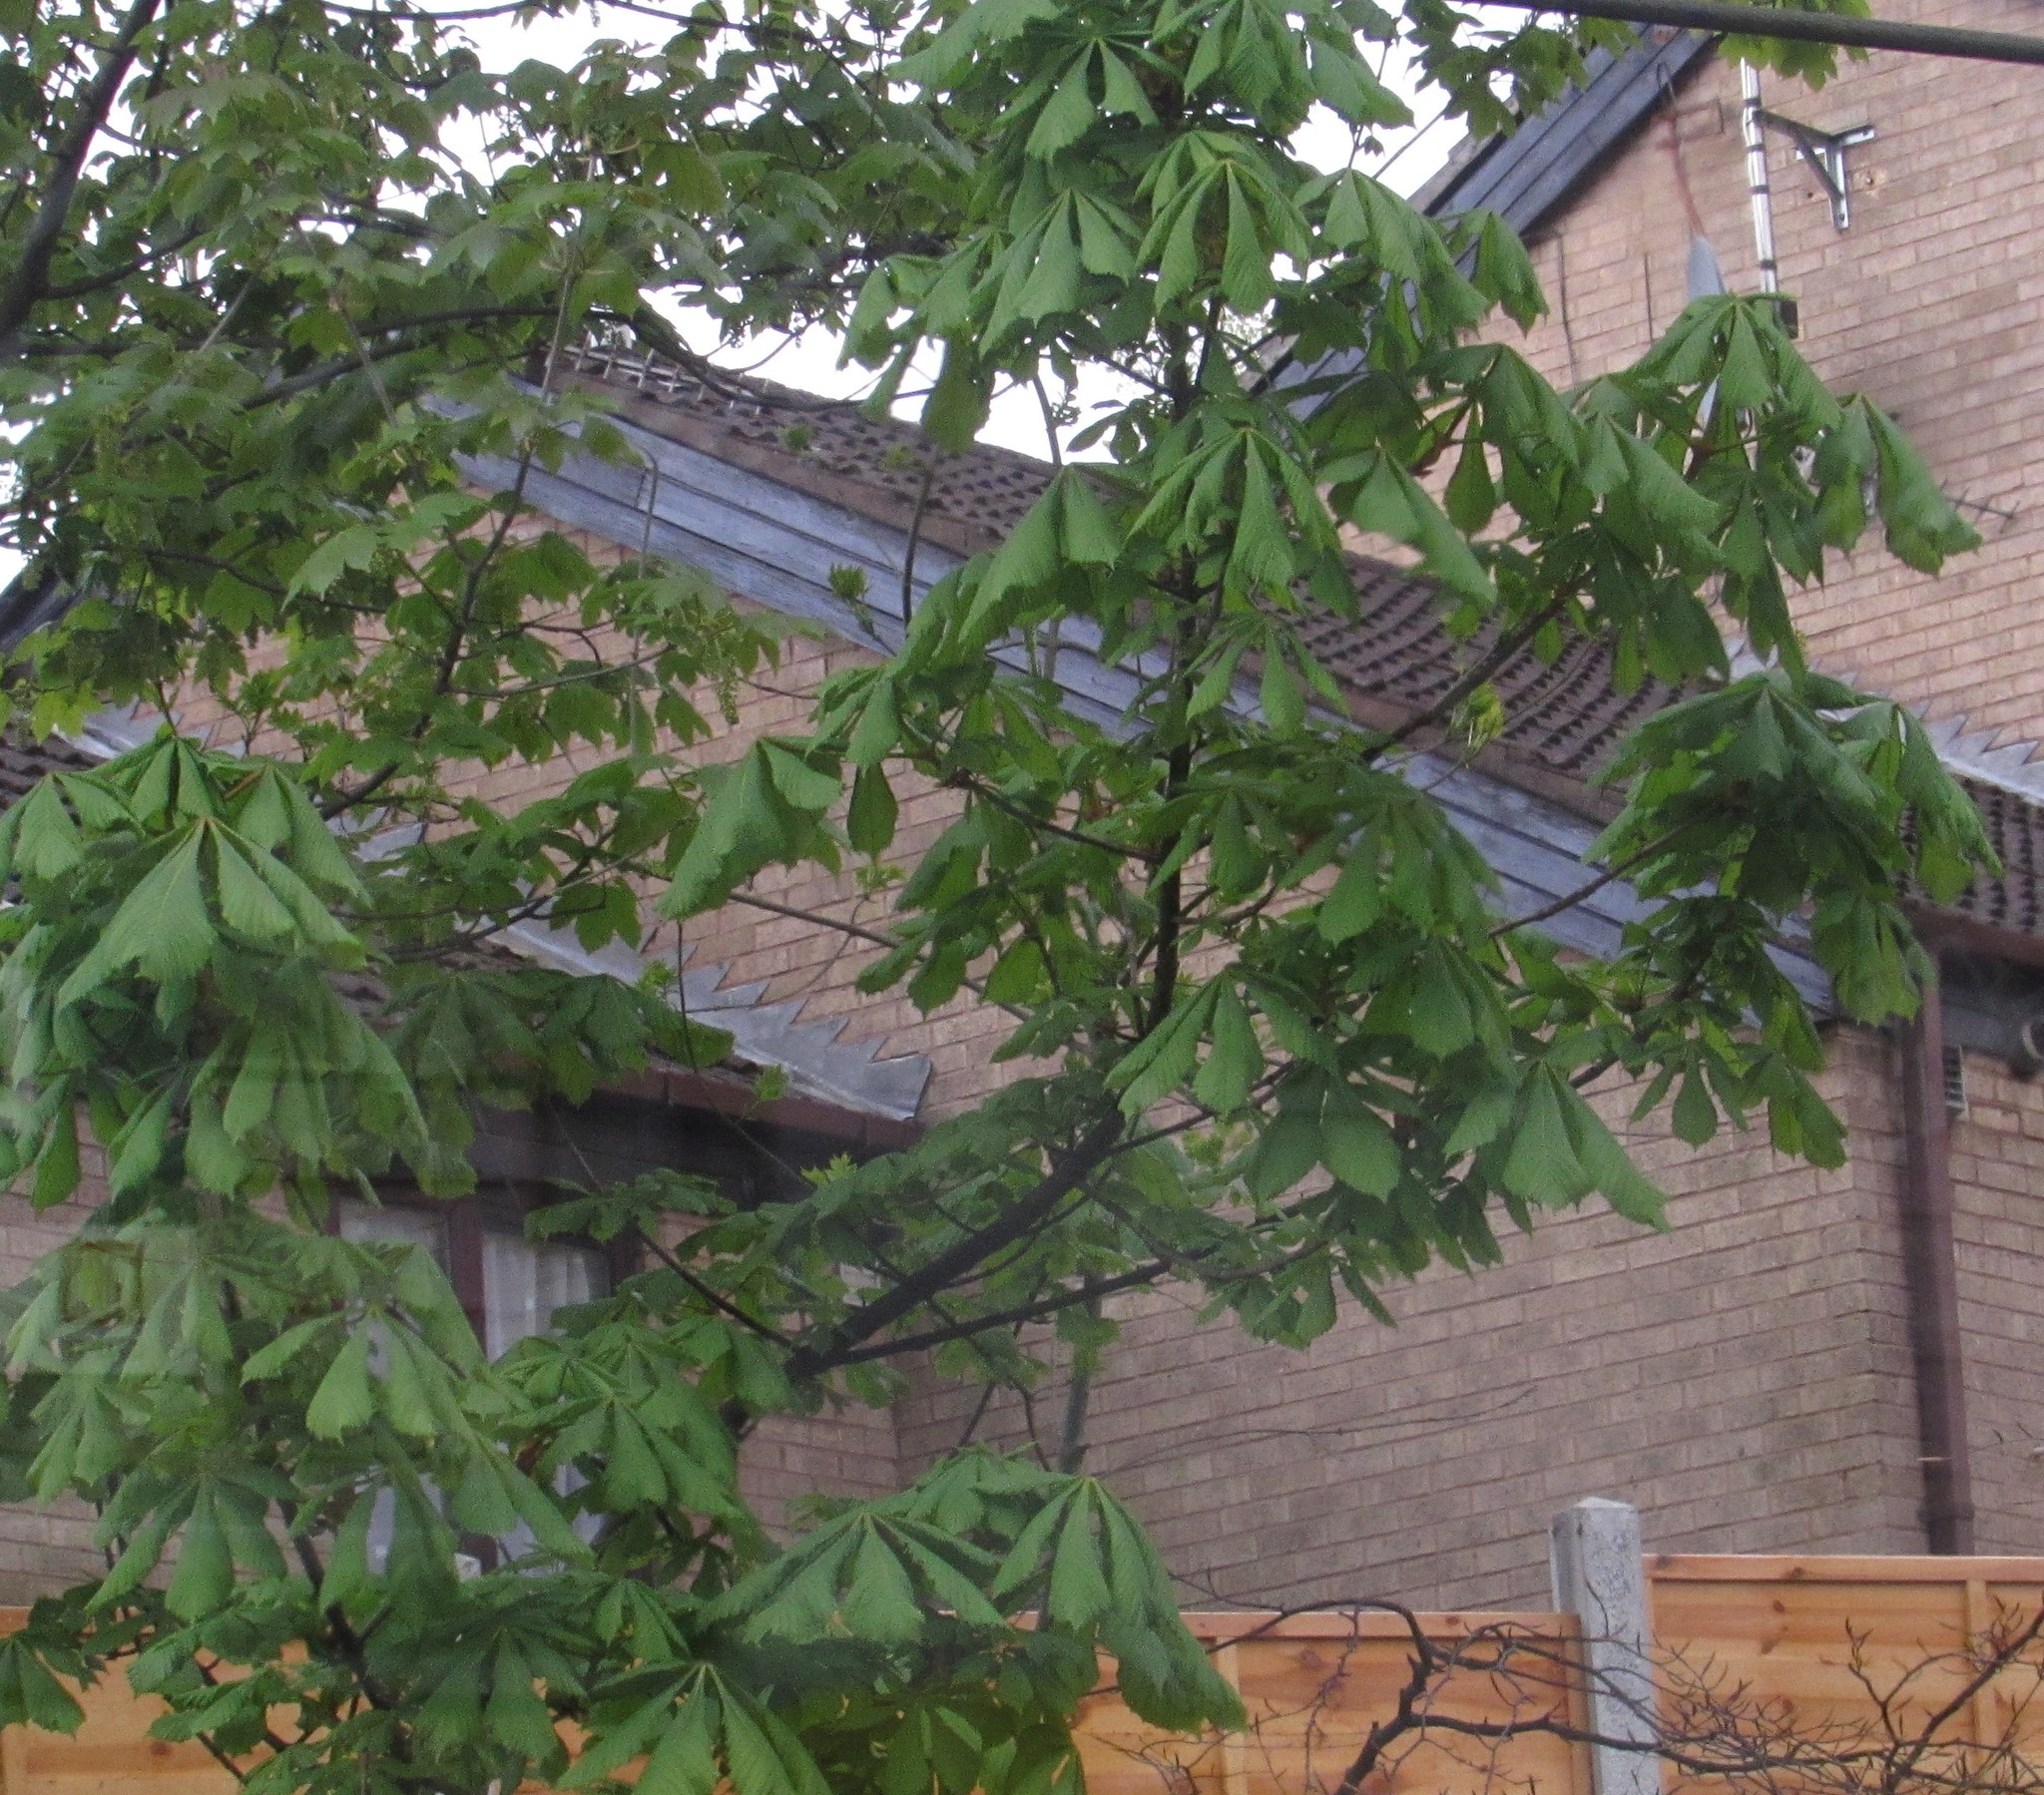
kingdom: Plantae
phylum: Tracheophyta
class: Magnoliopsida
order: Sapindales
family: Sapindaceae
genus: Aesculus
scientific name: Aesculus hippocastanum
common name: Horse-chestnut
